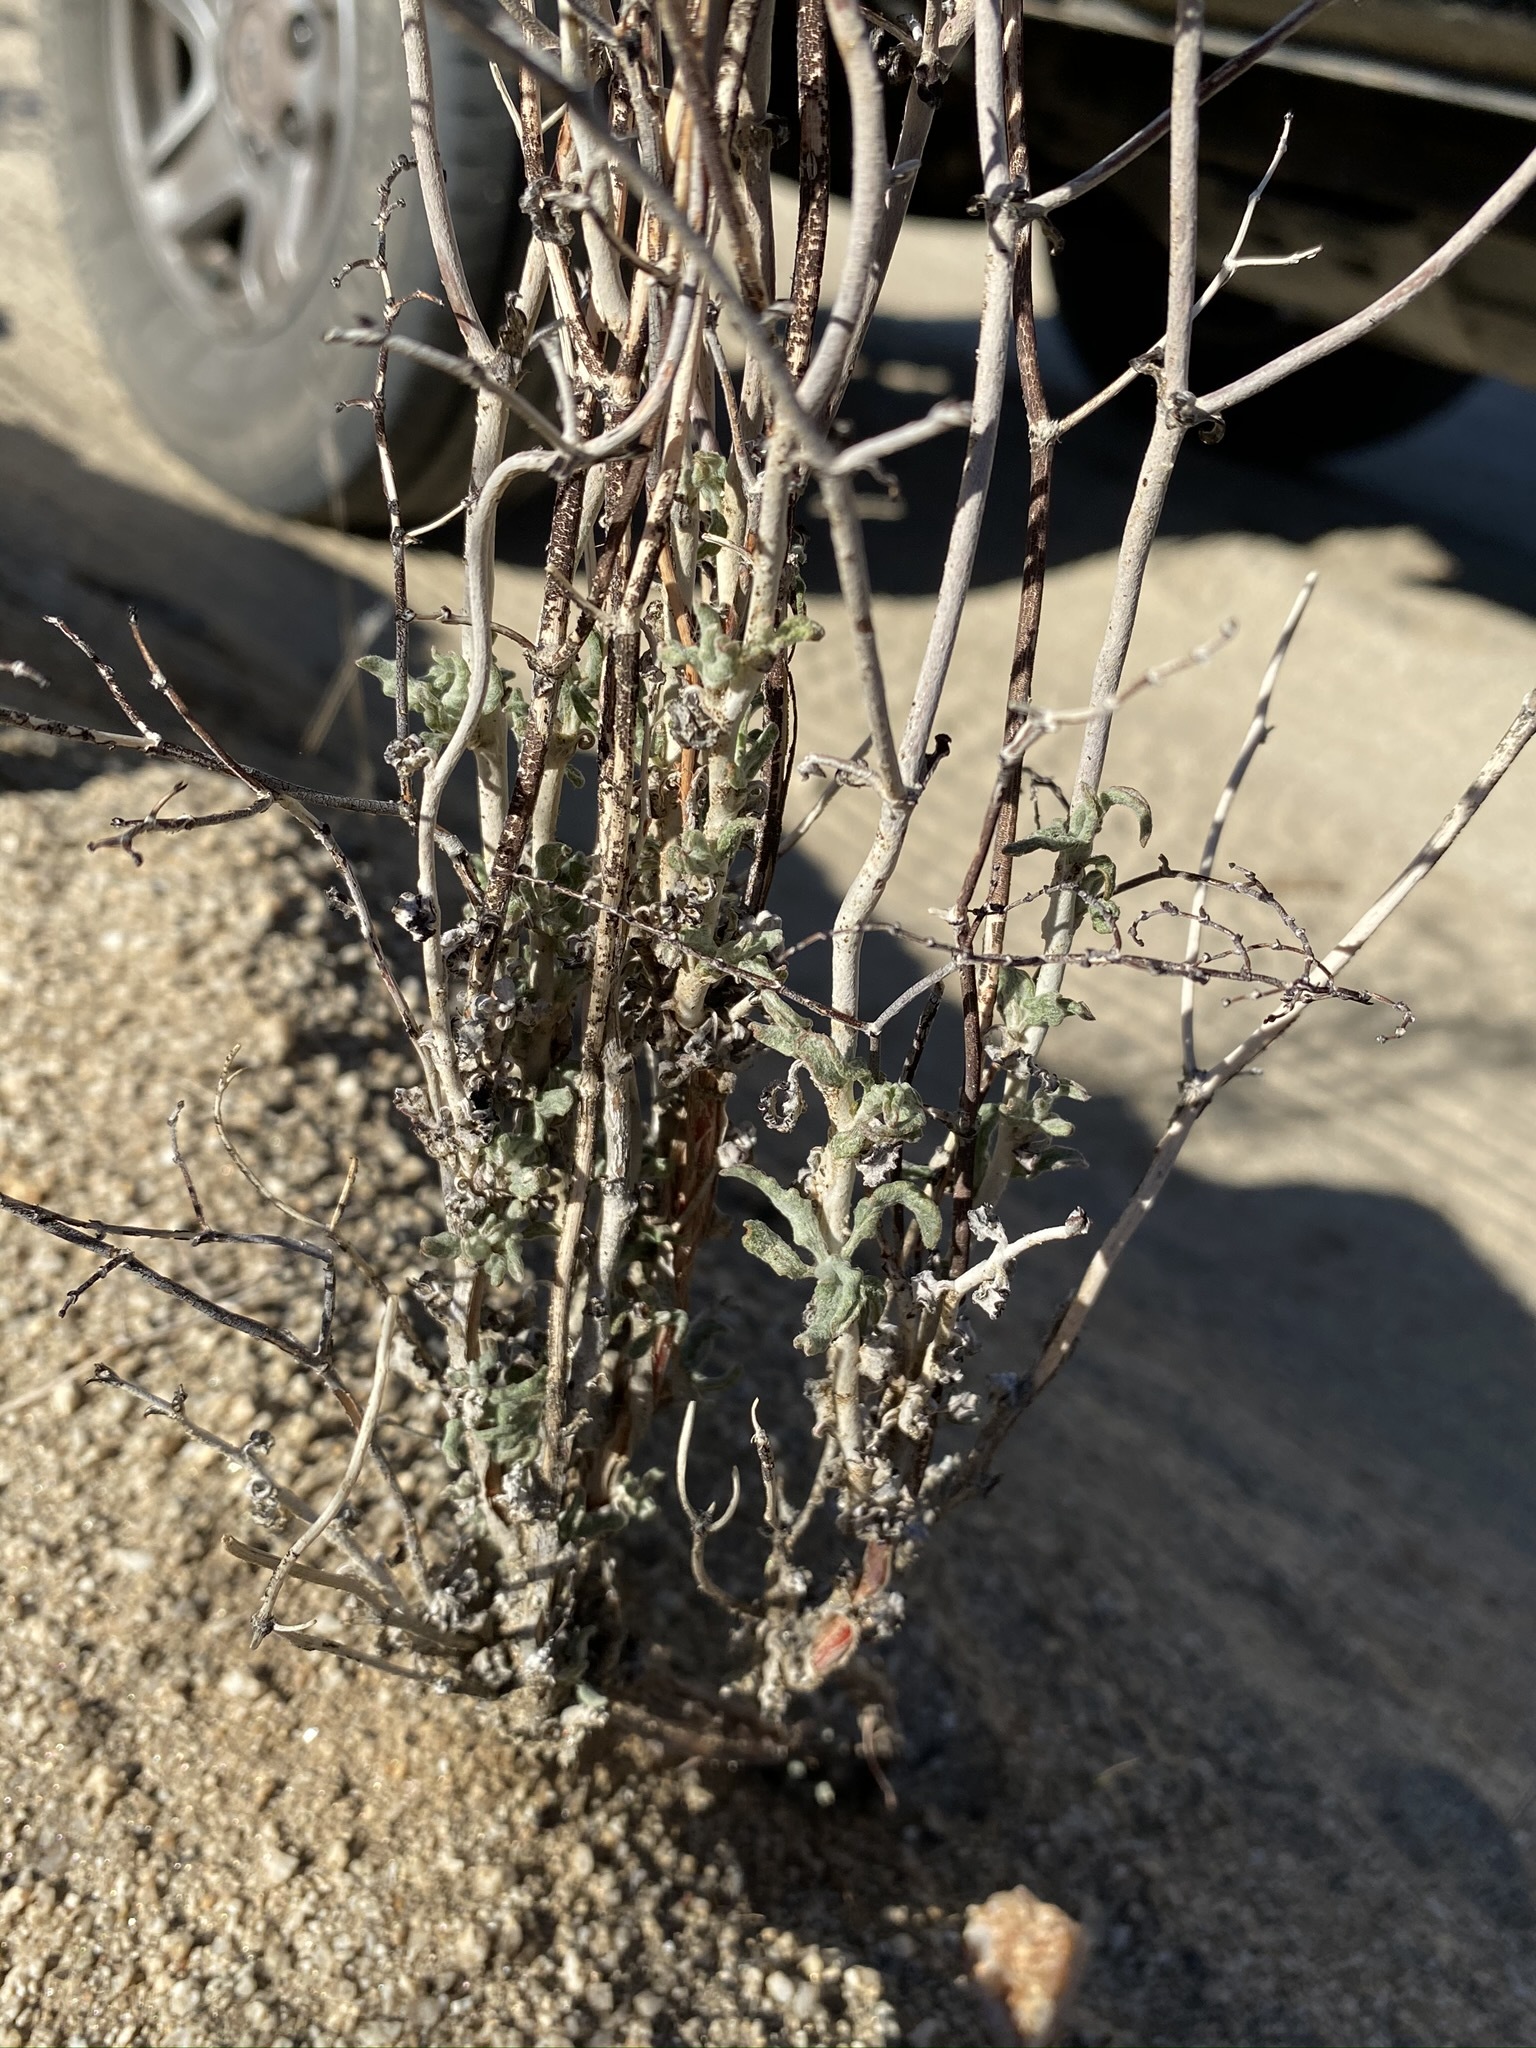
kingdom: Plantae
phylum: Tracheophyta
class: Magnoliopsida
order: Caryophyllales
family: Polygonaceae
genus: Eriogonum
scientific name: Eriogonum plumatella
